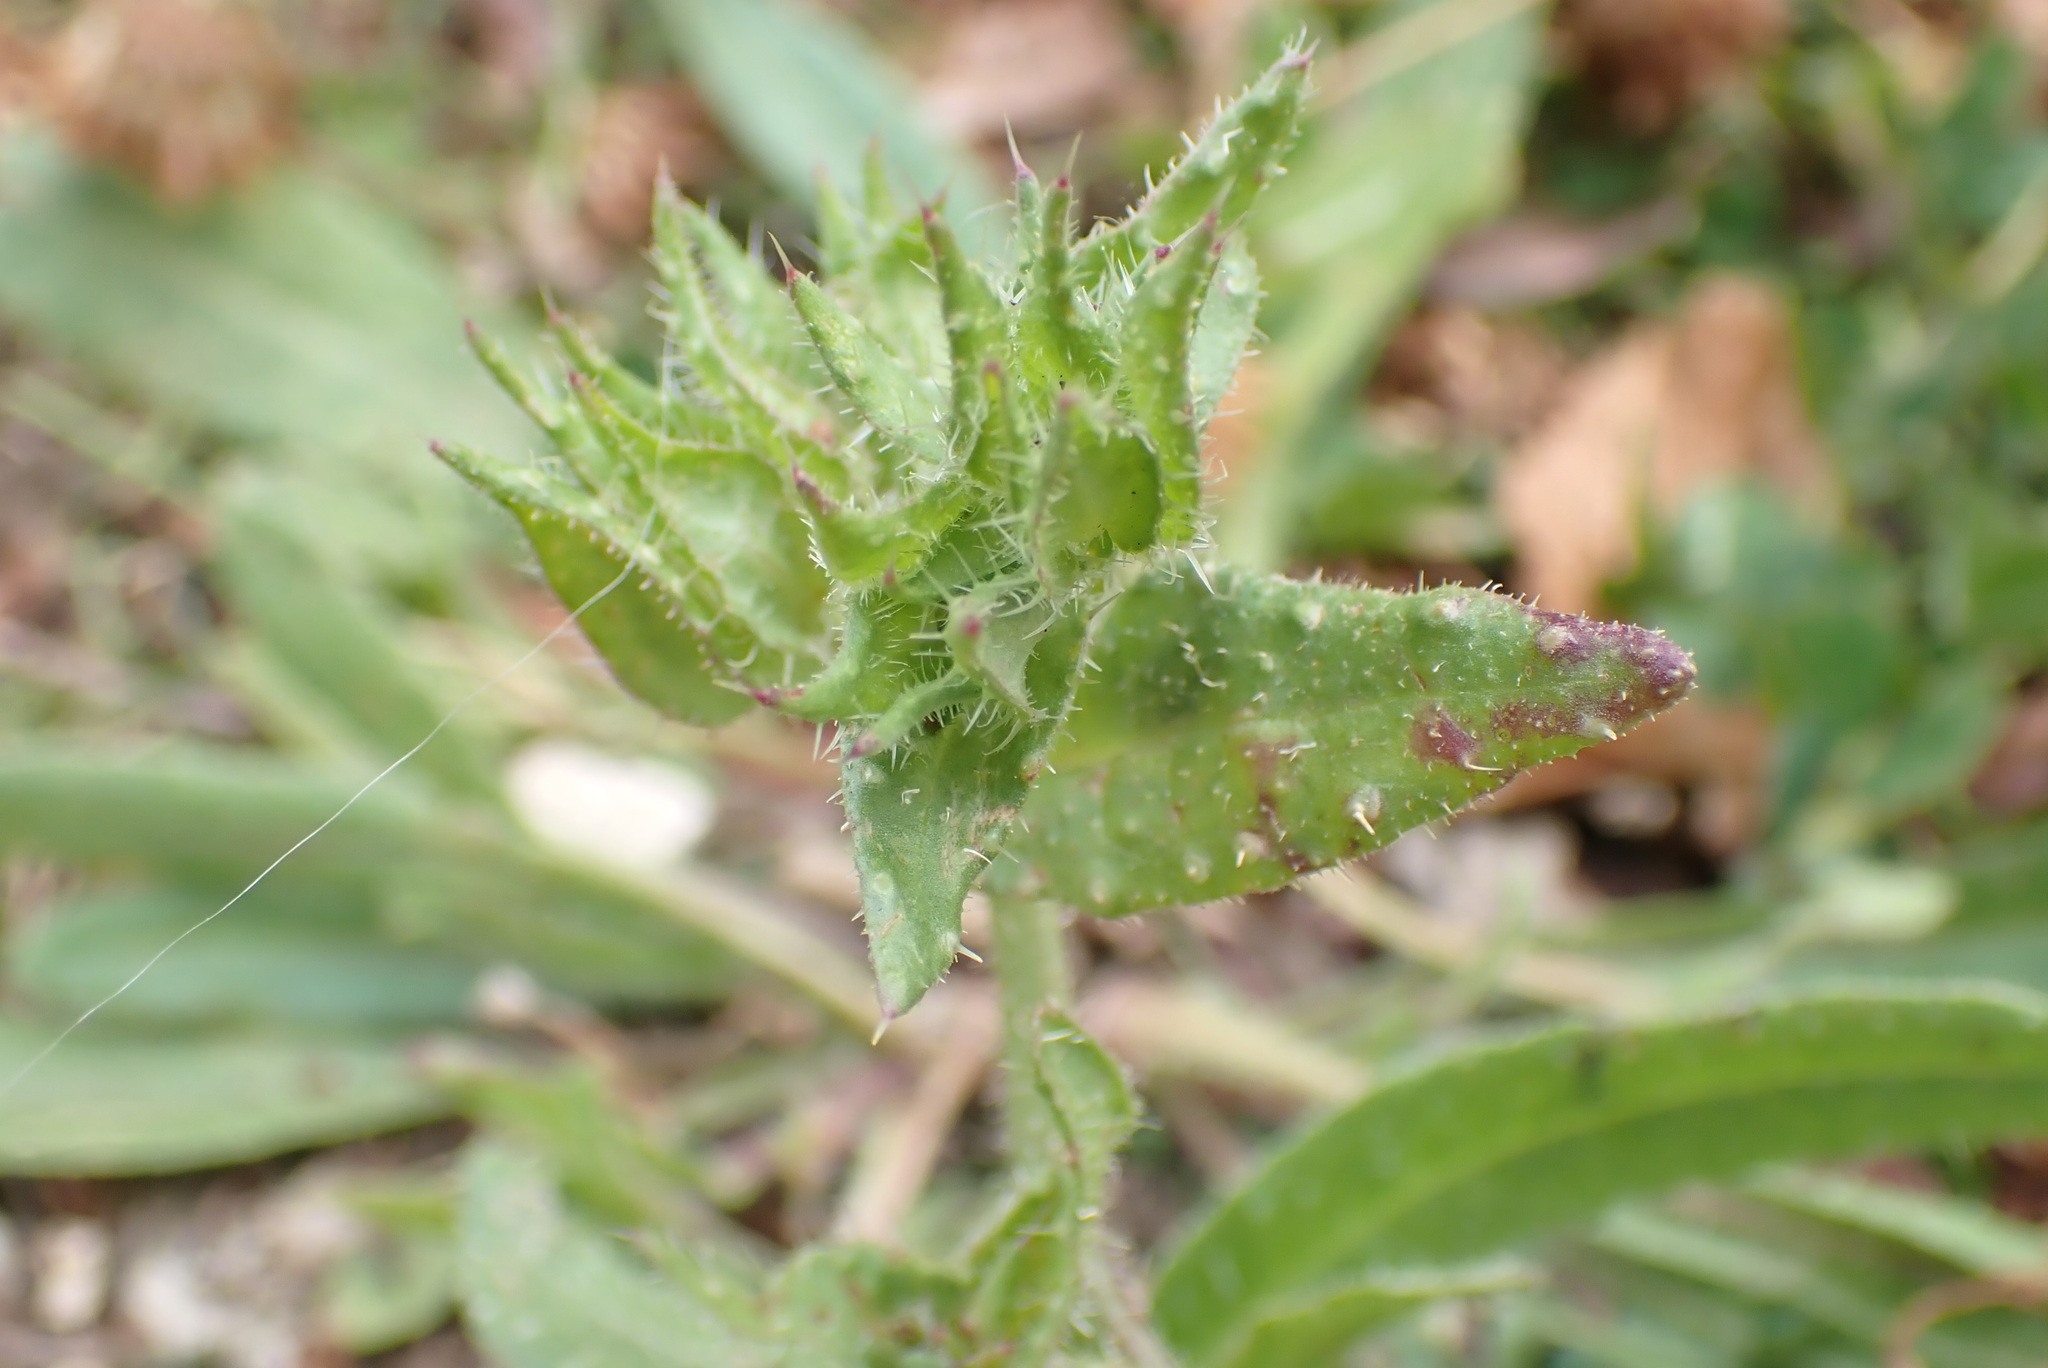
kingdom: Plantae
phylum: Tracheophyta
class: Magnoliopsida
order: Asterales
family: Asteraceae
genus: Helminthotheca
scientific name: Helminthotheca echioides
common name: Ox-tongue
